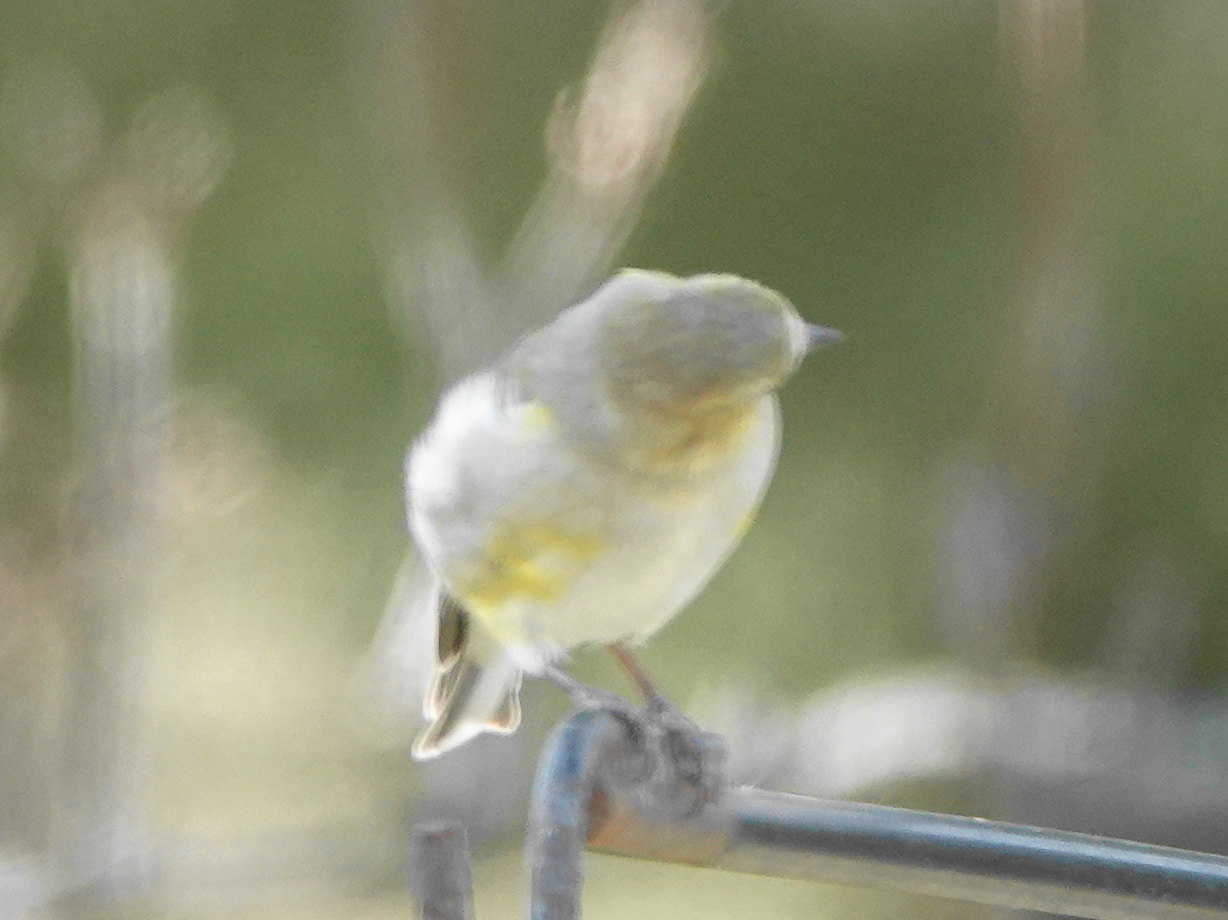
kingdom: Animalia
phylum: Chordata
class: Aves
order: Passeriformes
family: Fringillidae
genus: Spinus
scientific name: Spinus tristis
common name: American goldfinch
